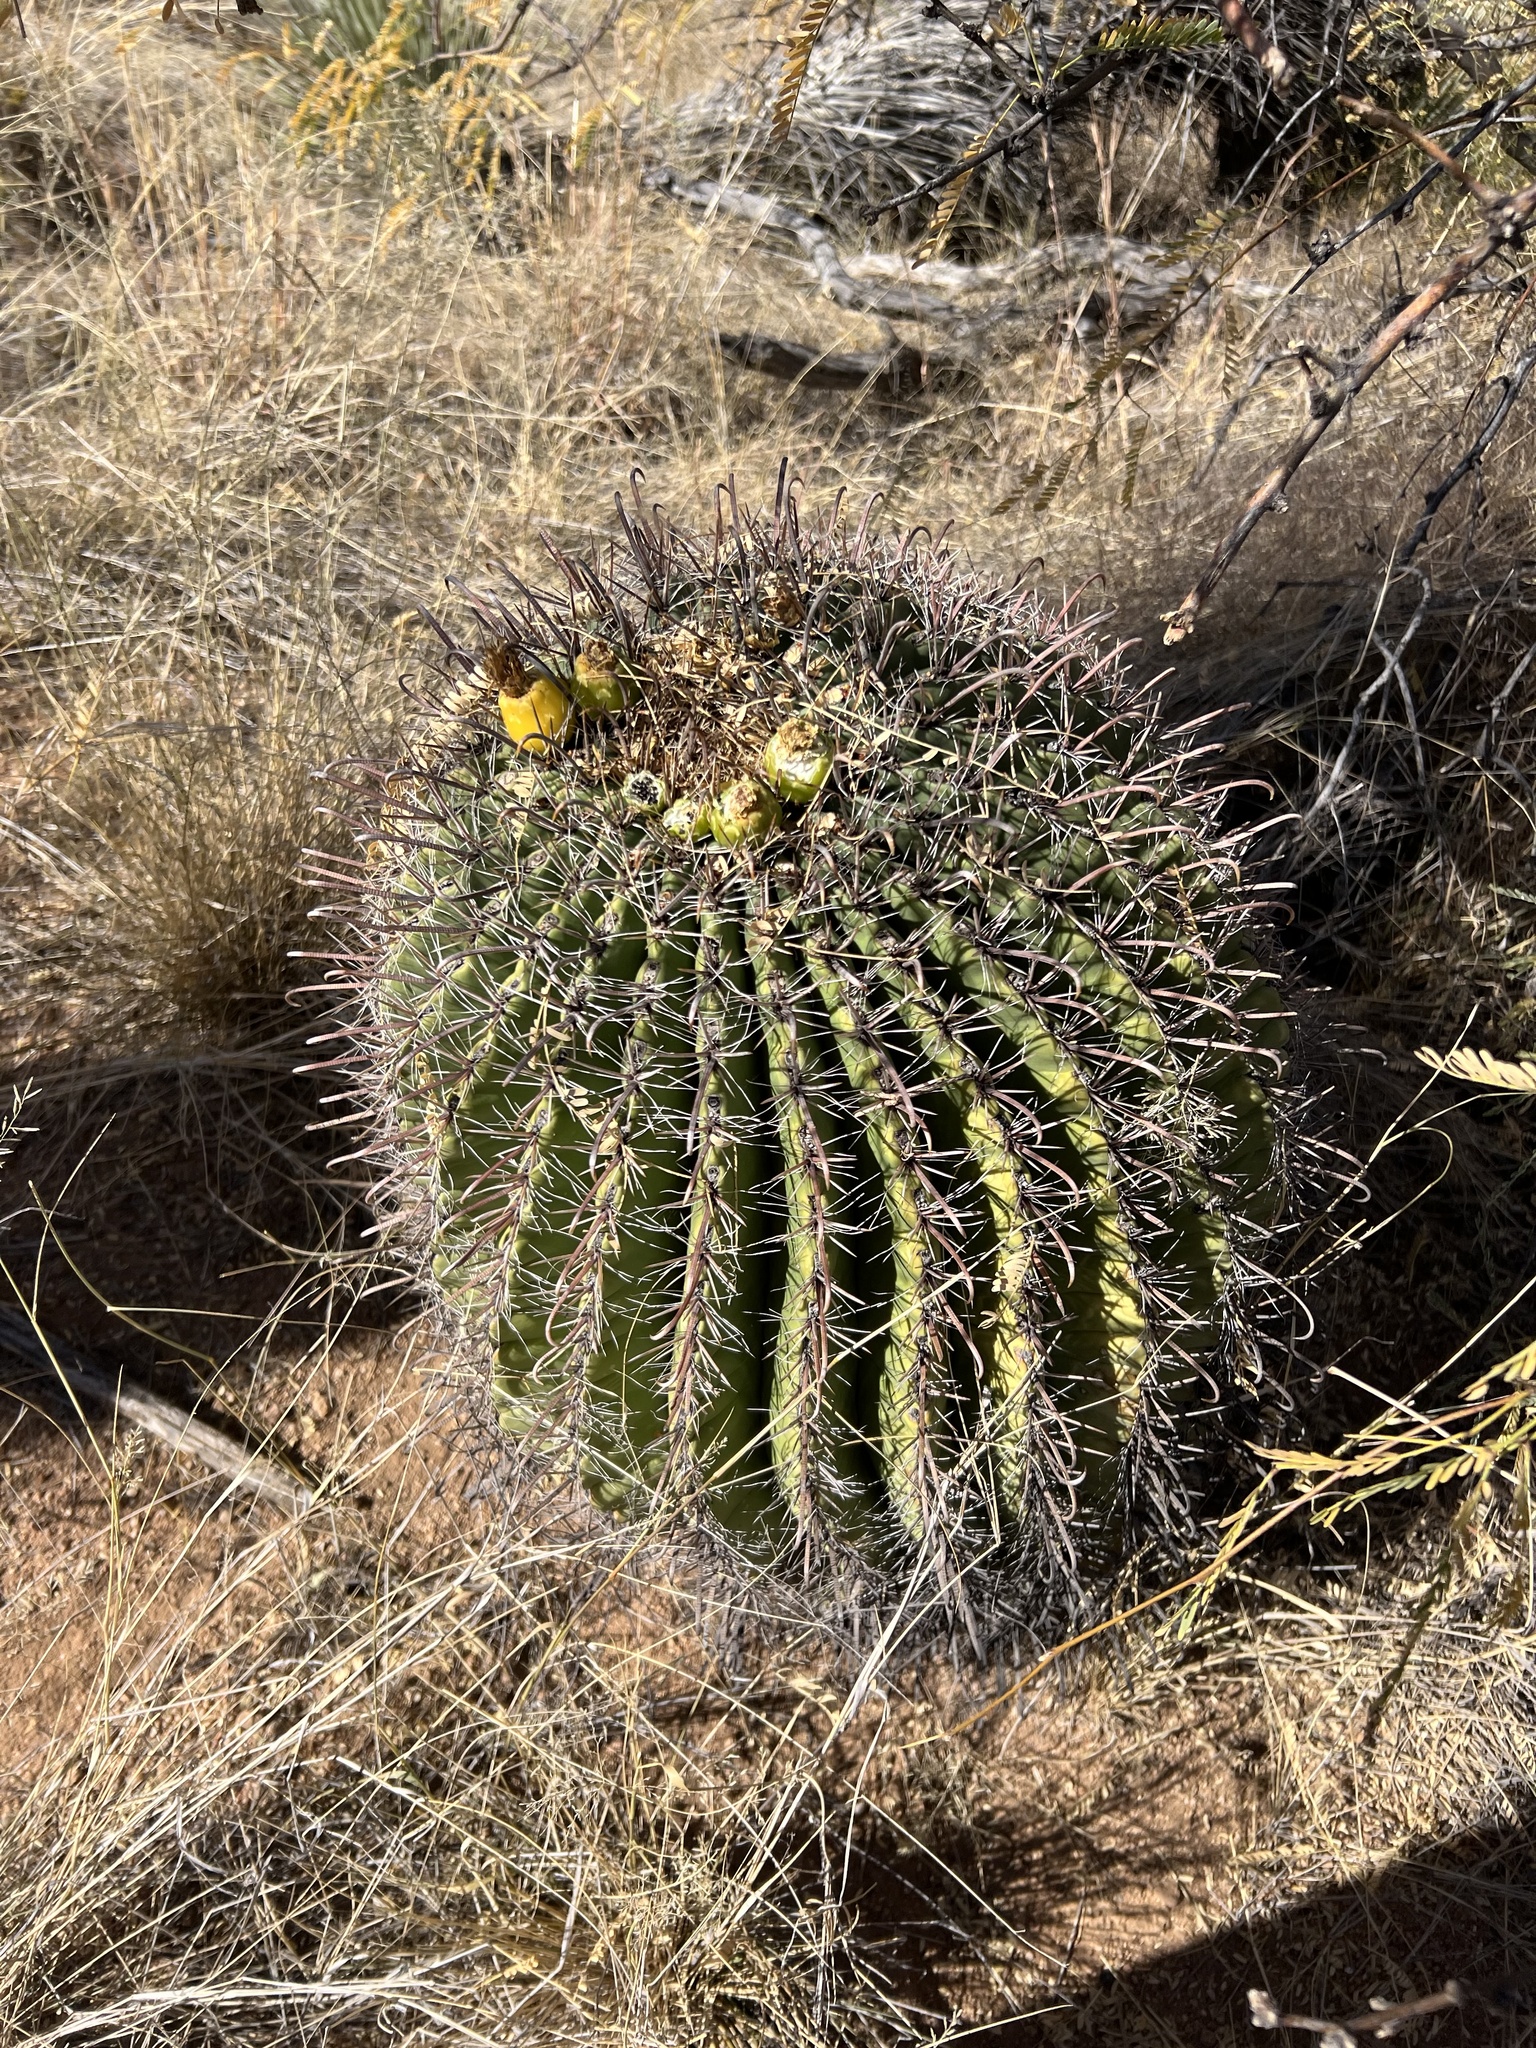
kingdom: Plantae
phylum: Tracheophyta
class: Magnoliopsida
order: Caryophyllales
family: Cactaceae
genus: Ferocactus
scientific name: Ferocactus wislizeni
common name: Candy barrel cactus
